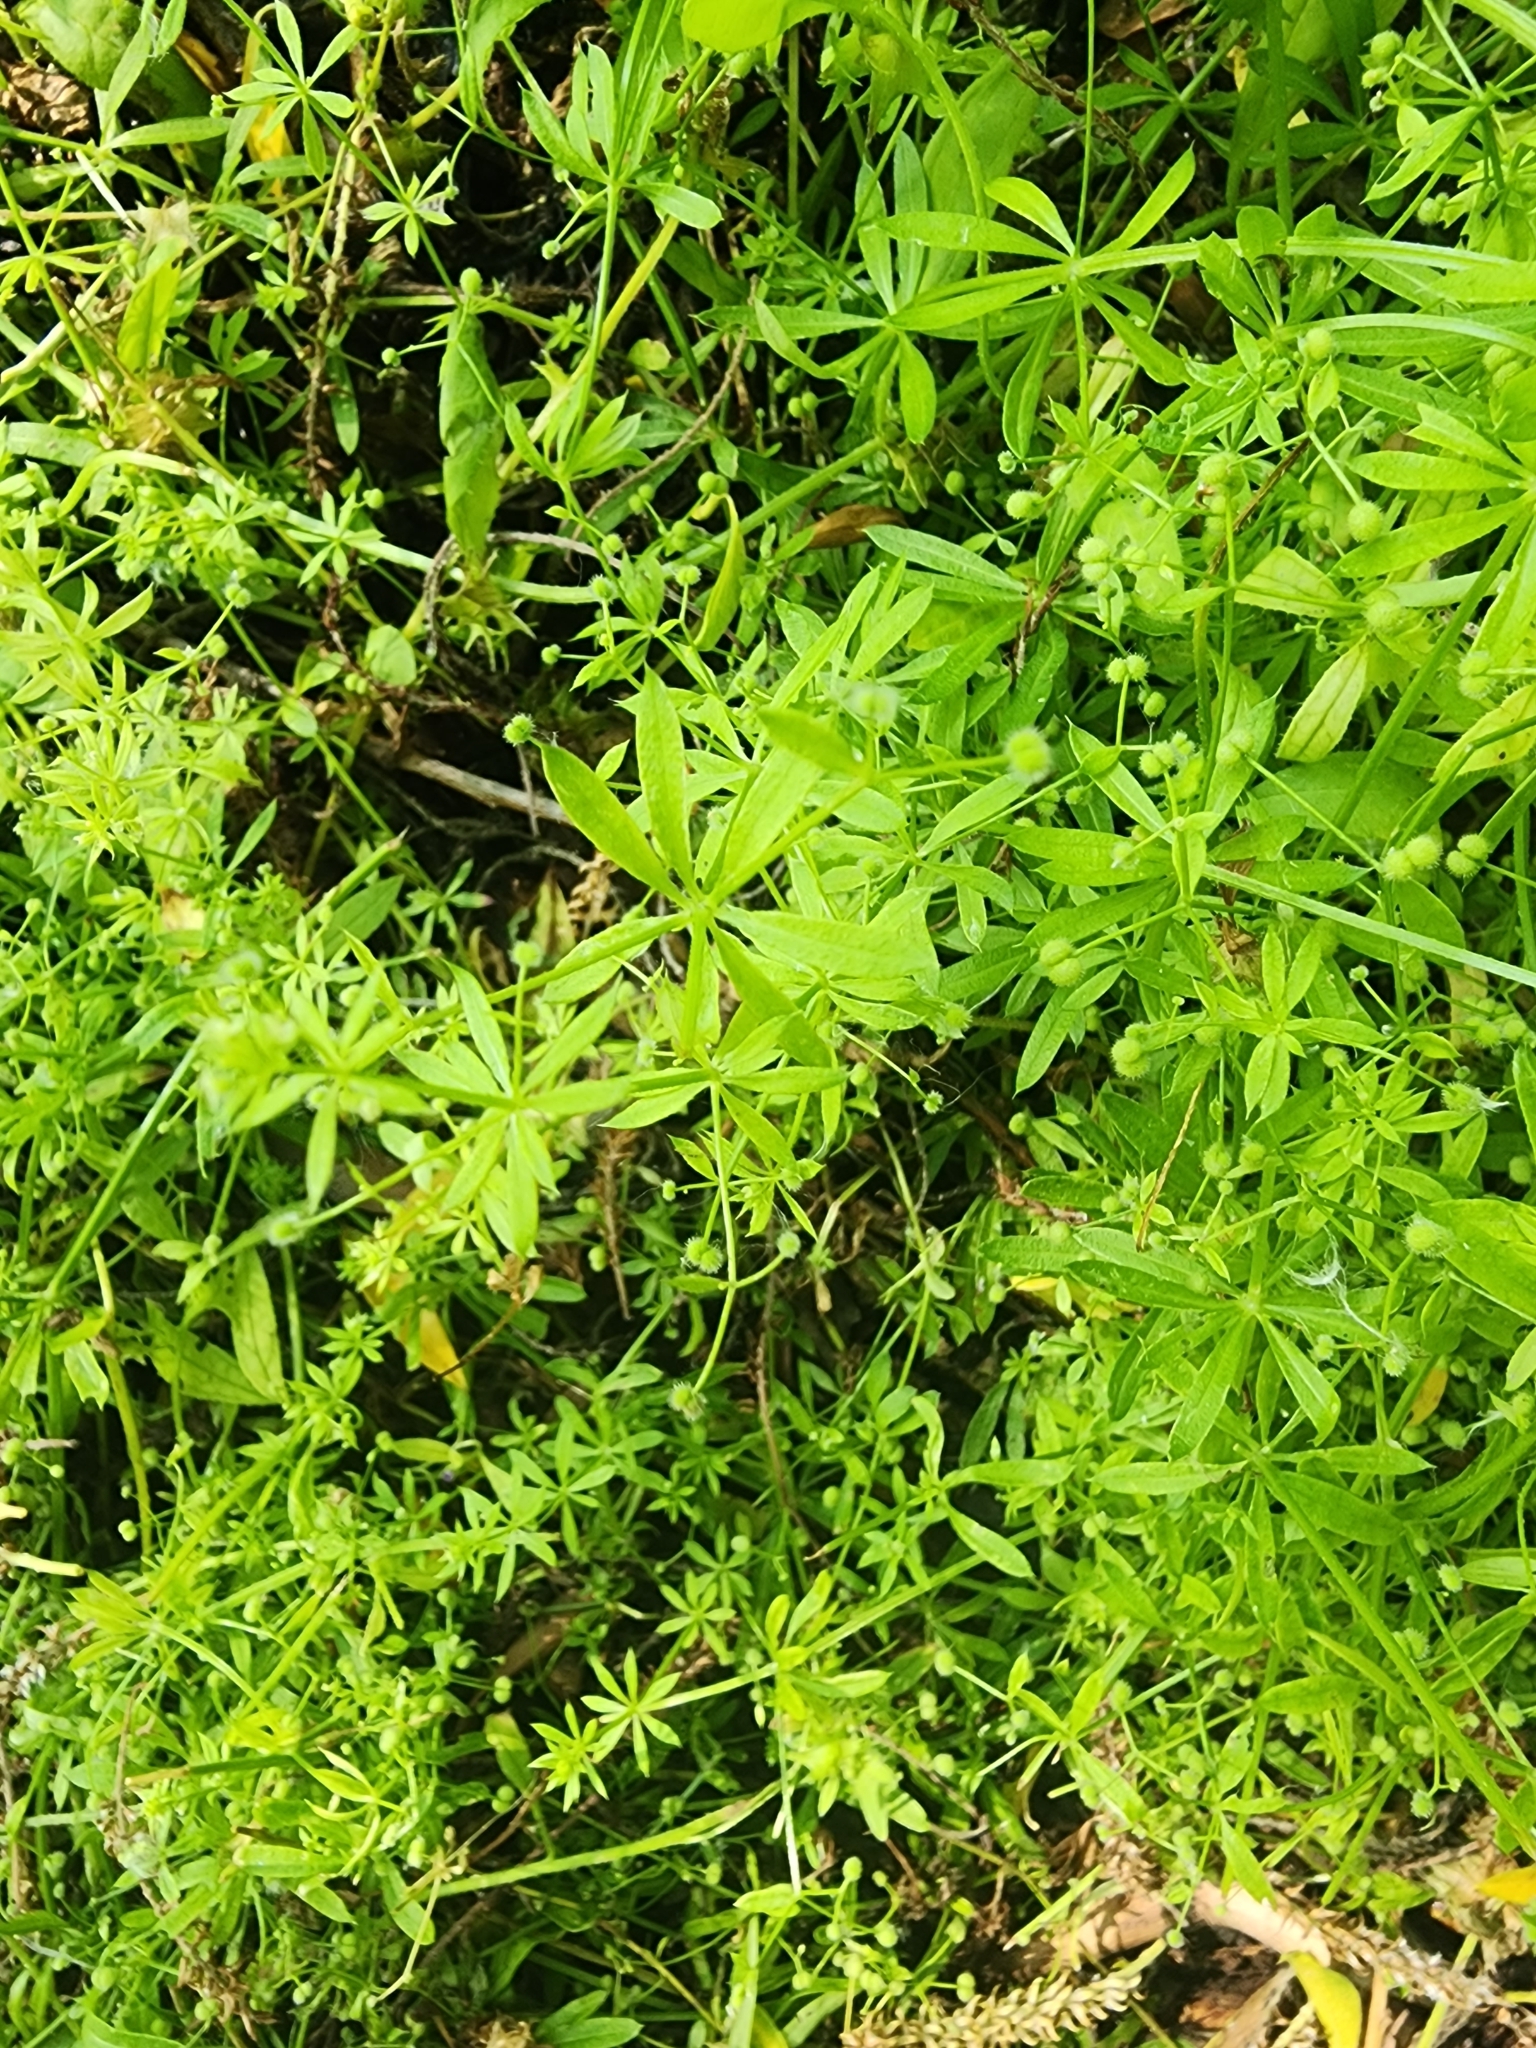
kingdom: Plantae
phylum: Tracheophyta
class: Magnoliopsida
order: Gentianales
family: Rubiaceae
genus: Galium
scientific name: Galium aparine
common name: Cleavers
